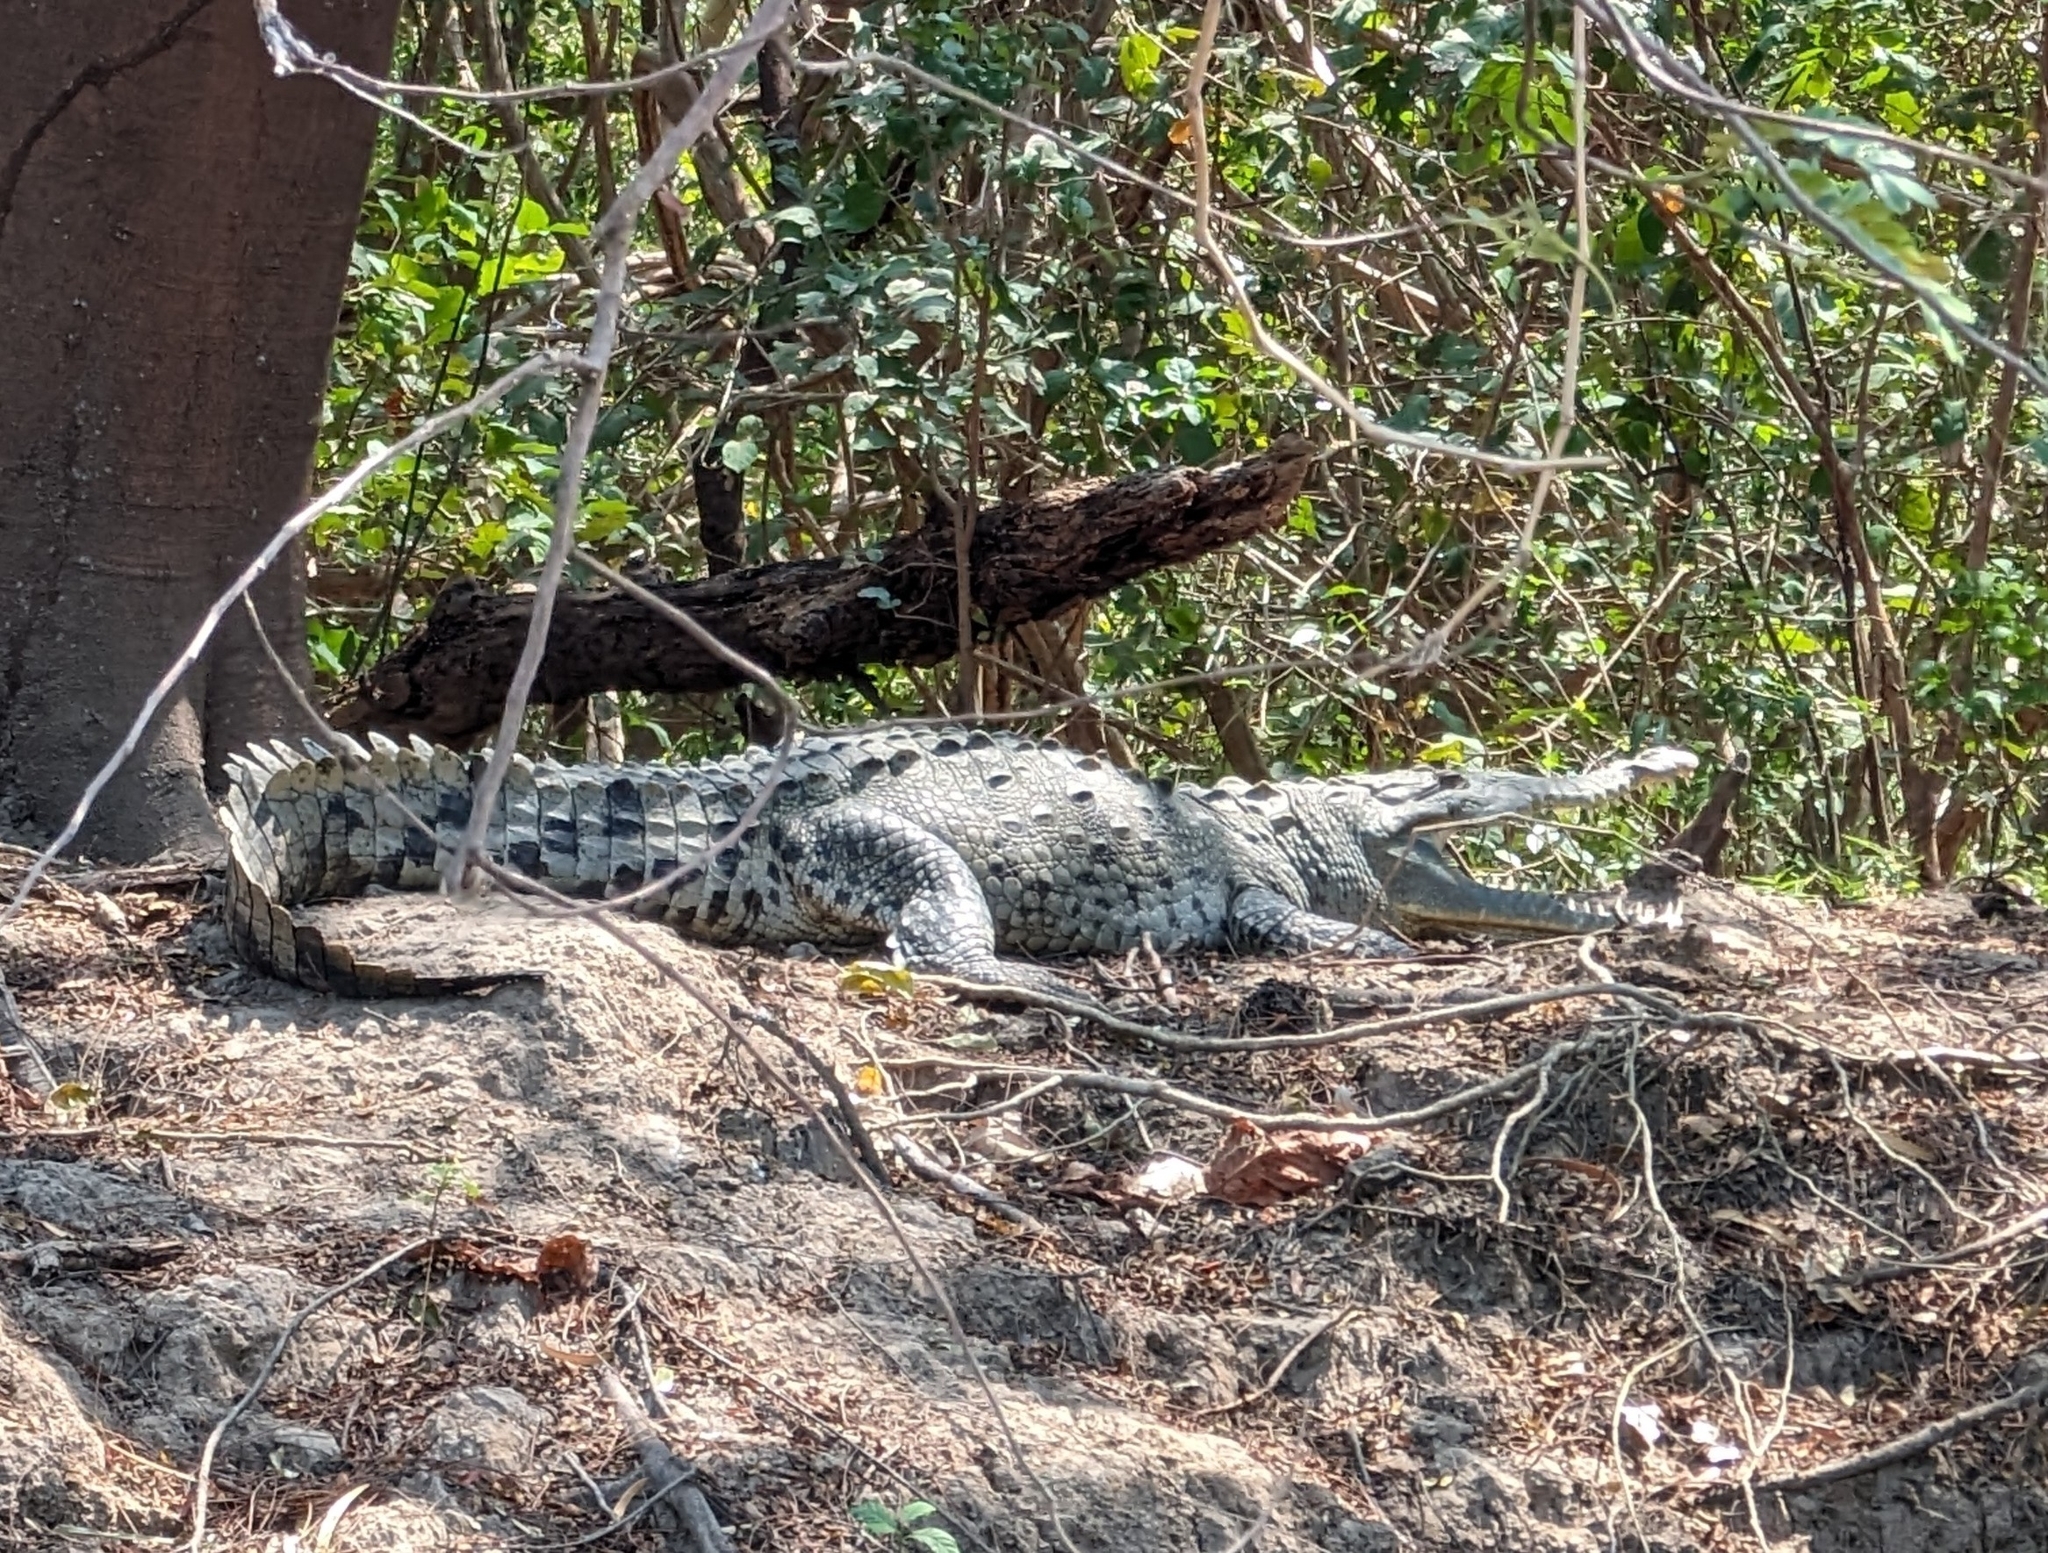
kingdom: Animalia
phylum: Chordata
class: Crocodylia
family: Crocodylidae
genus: Crocodylus
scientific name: Crocodylus acutus
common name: American crocodile
